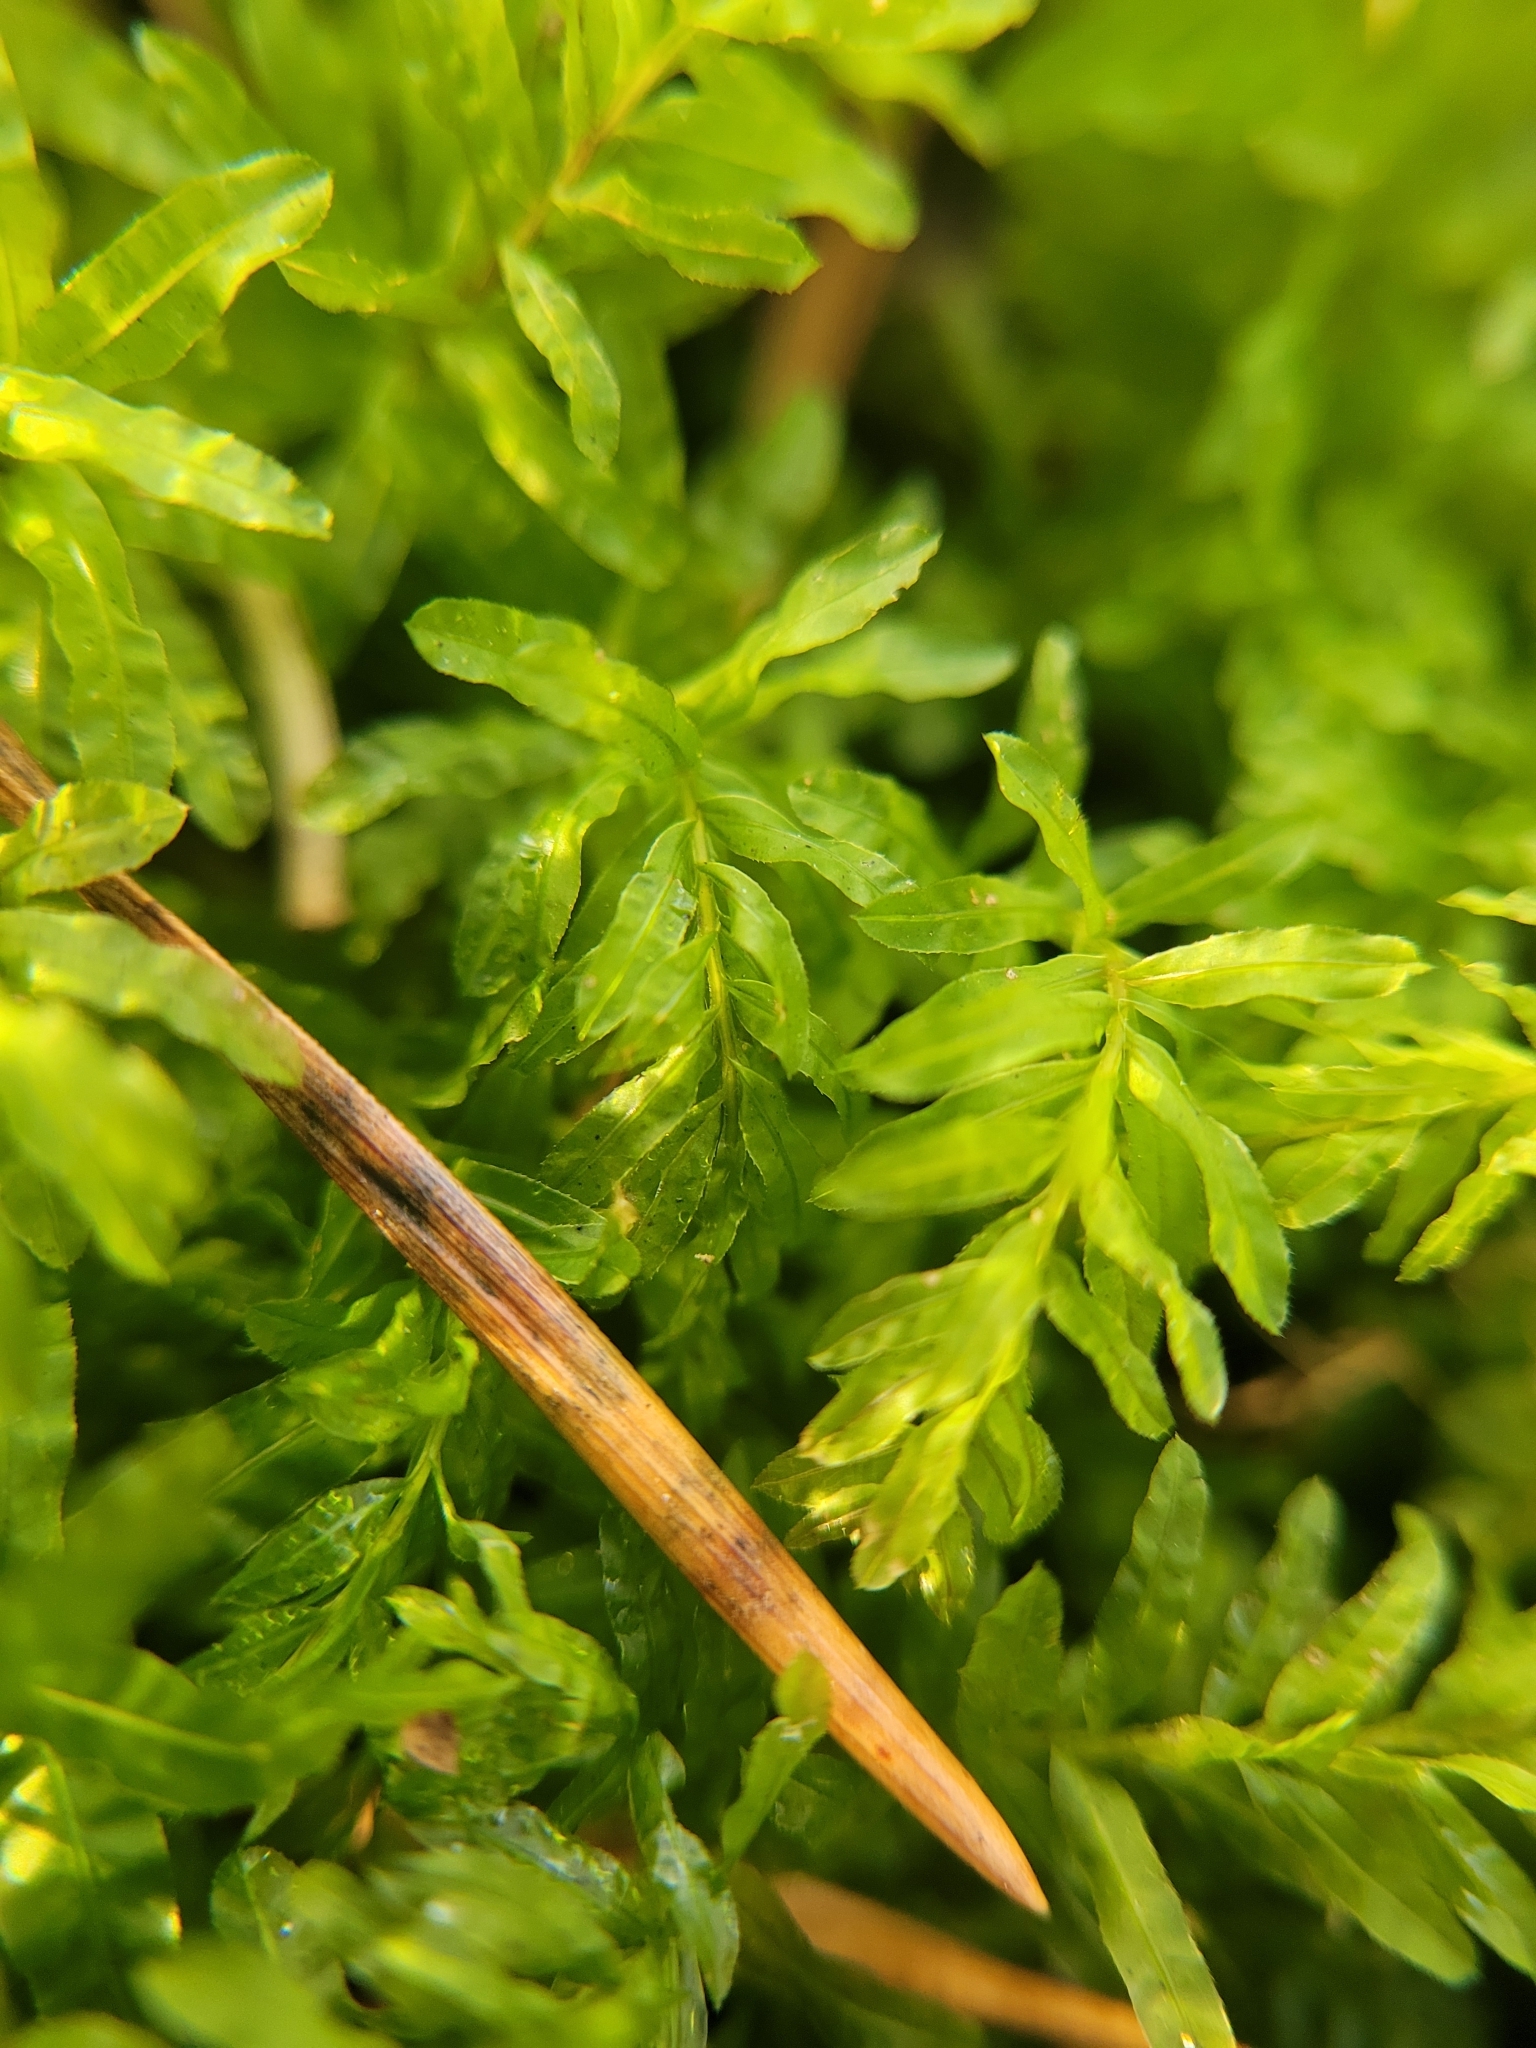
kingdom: Plantae
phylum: Bryophyta
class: Bryopsida
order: Bryales
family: Mniaceae
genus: Plagiomnium
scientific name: Plagiomnium undulatum
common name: Hart's-tongue thyme-moss
